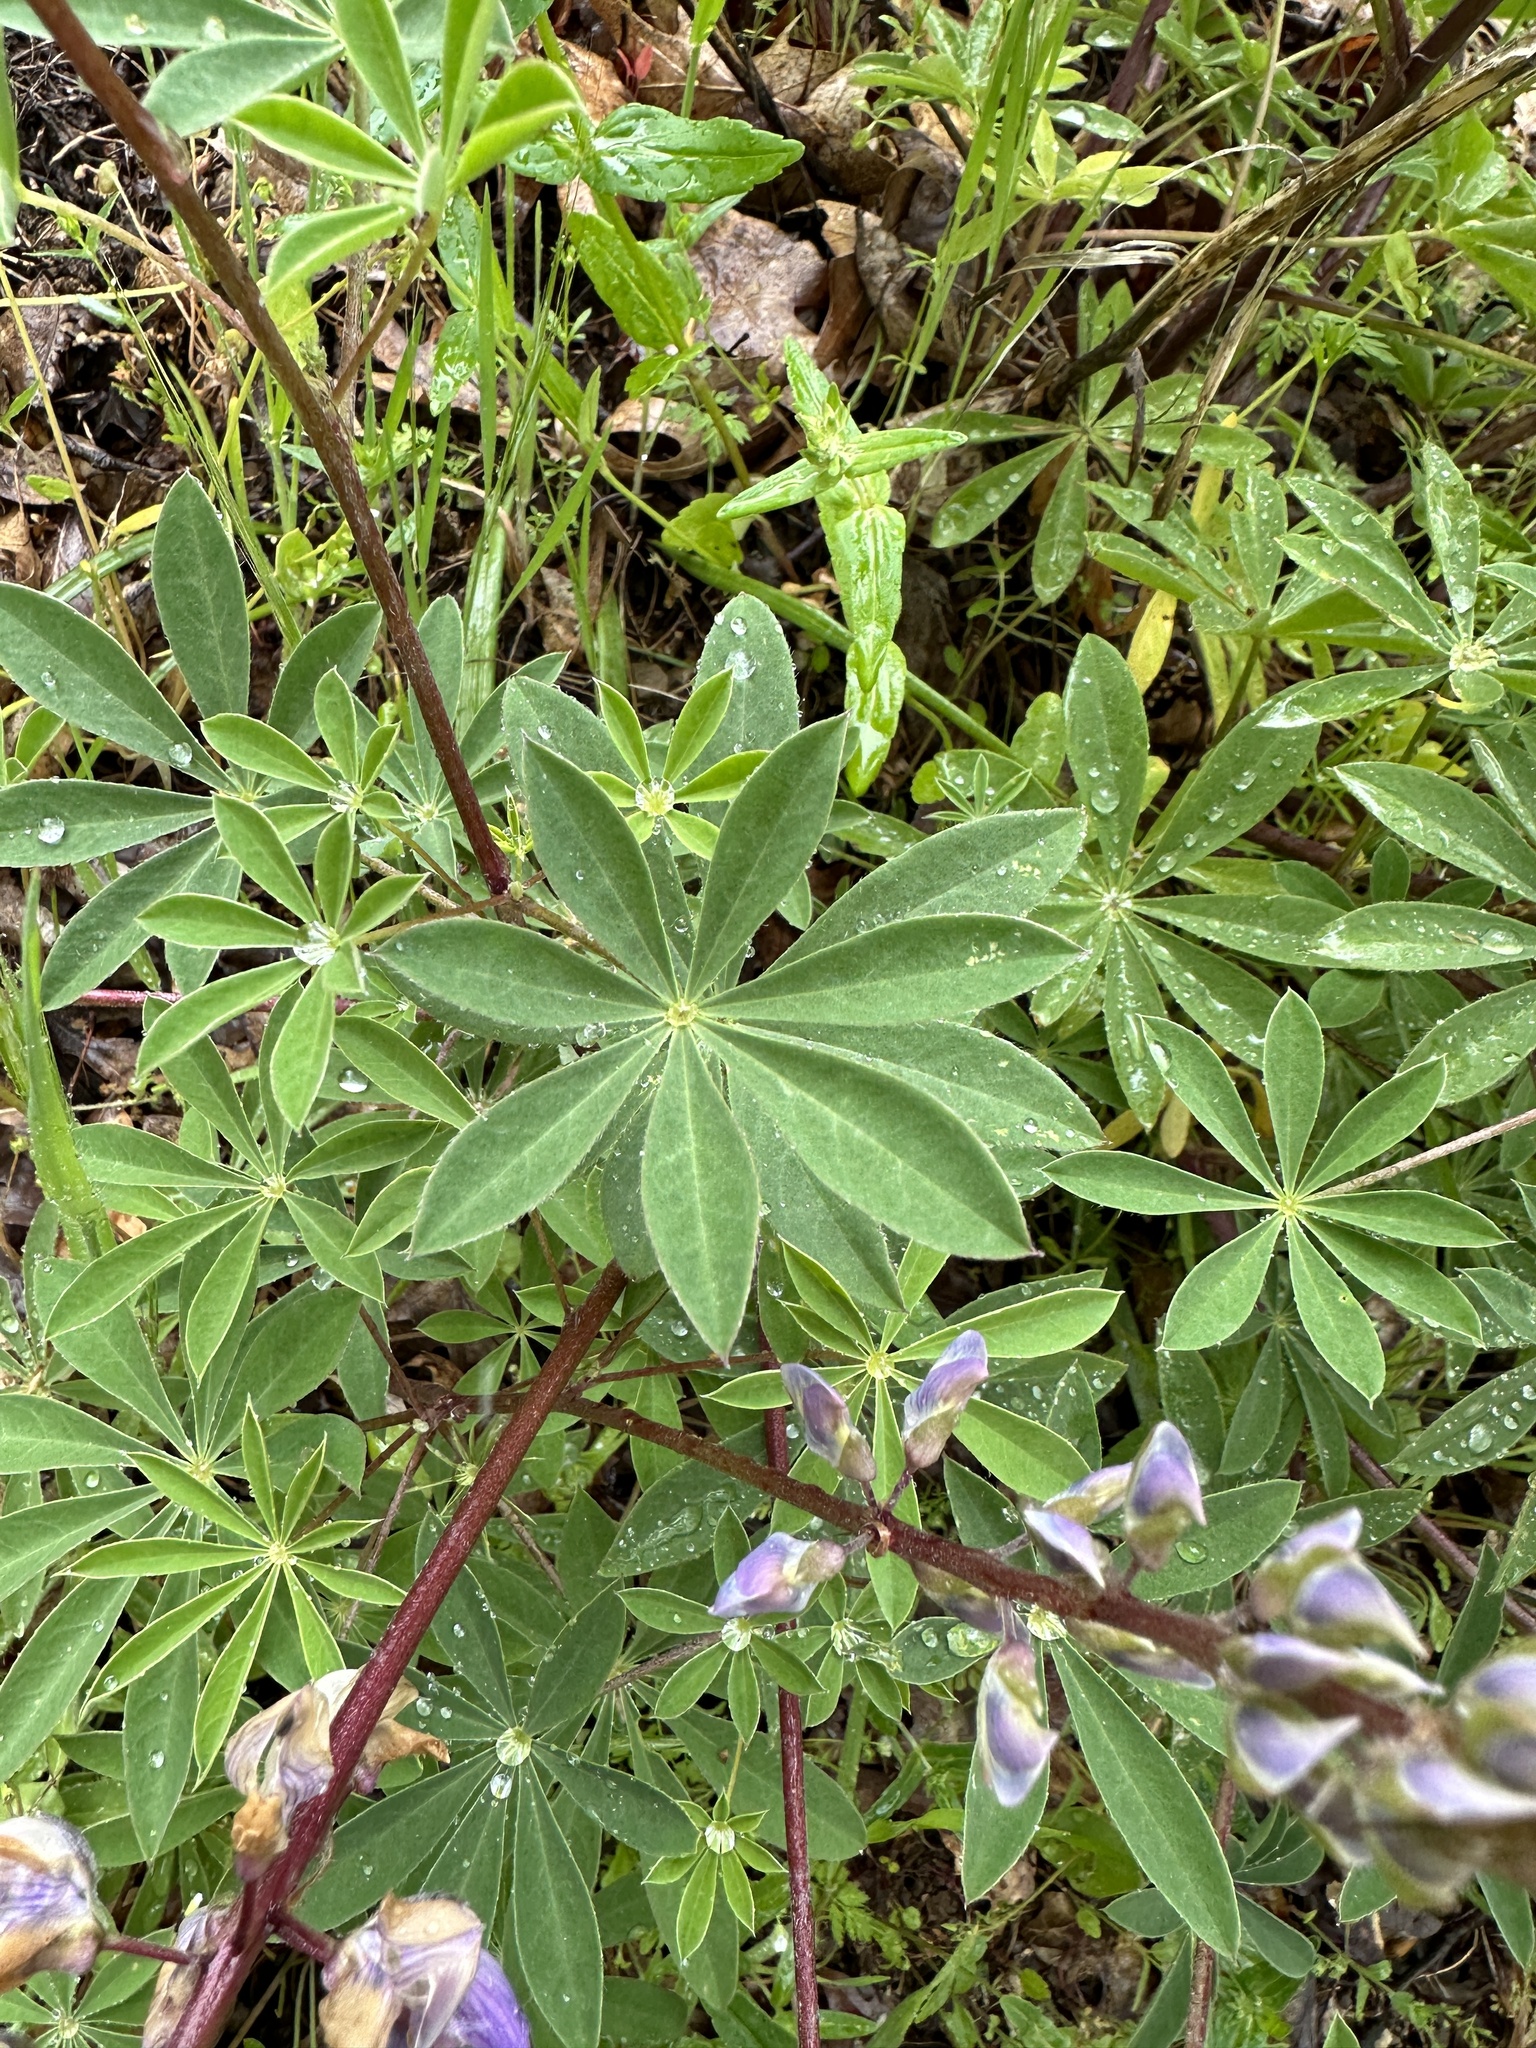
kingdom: Plantae
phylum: Tracheophyta
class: Magnoliopsida
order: Fabales
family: Fabaceae
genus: Lupinus
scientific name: Lupinus latifolius
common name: Broad-leaved lupine
